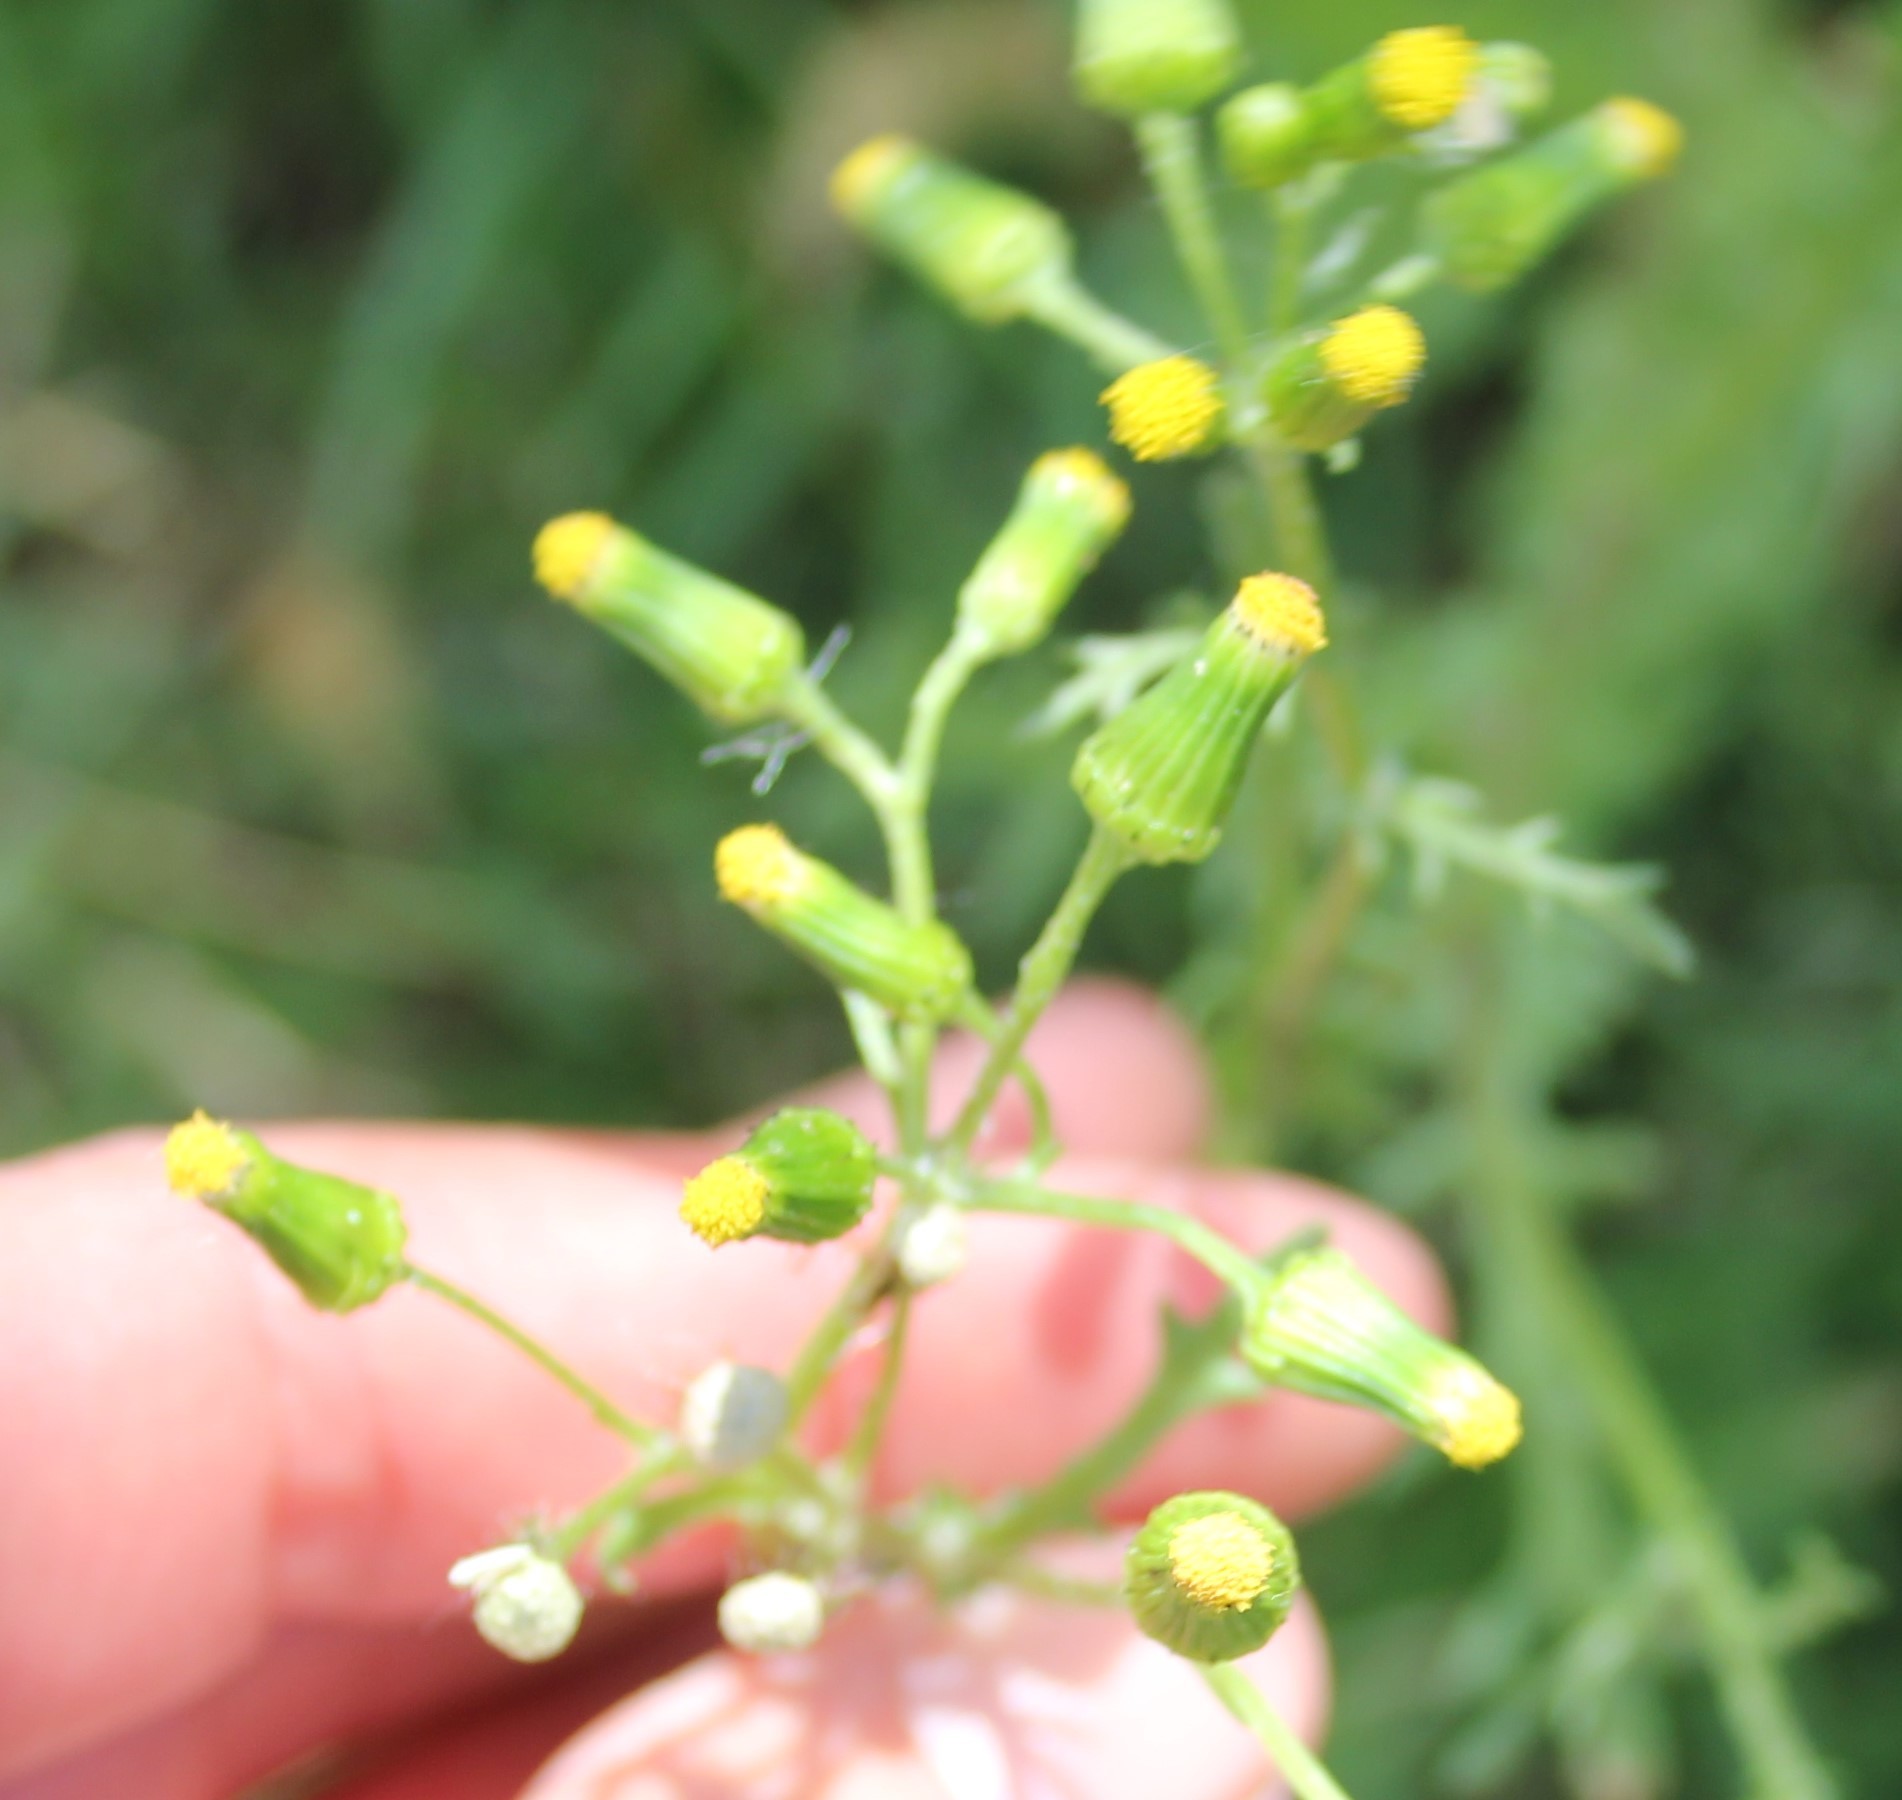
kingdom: Plantae
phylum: Tracheophyta
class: Magnoliopsida
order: Asterales
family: Asteraceae
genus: Senecio
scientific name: Senecio vulgaris
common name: Old-man-in-the-spring
